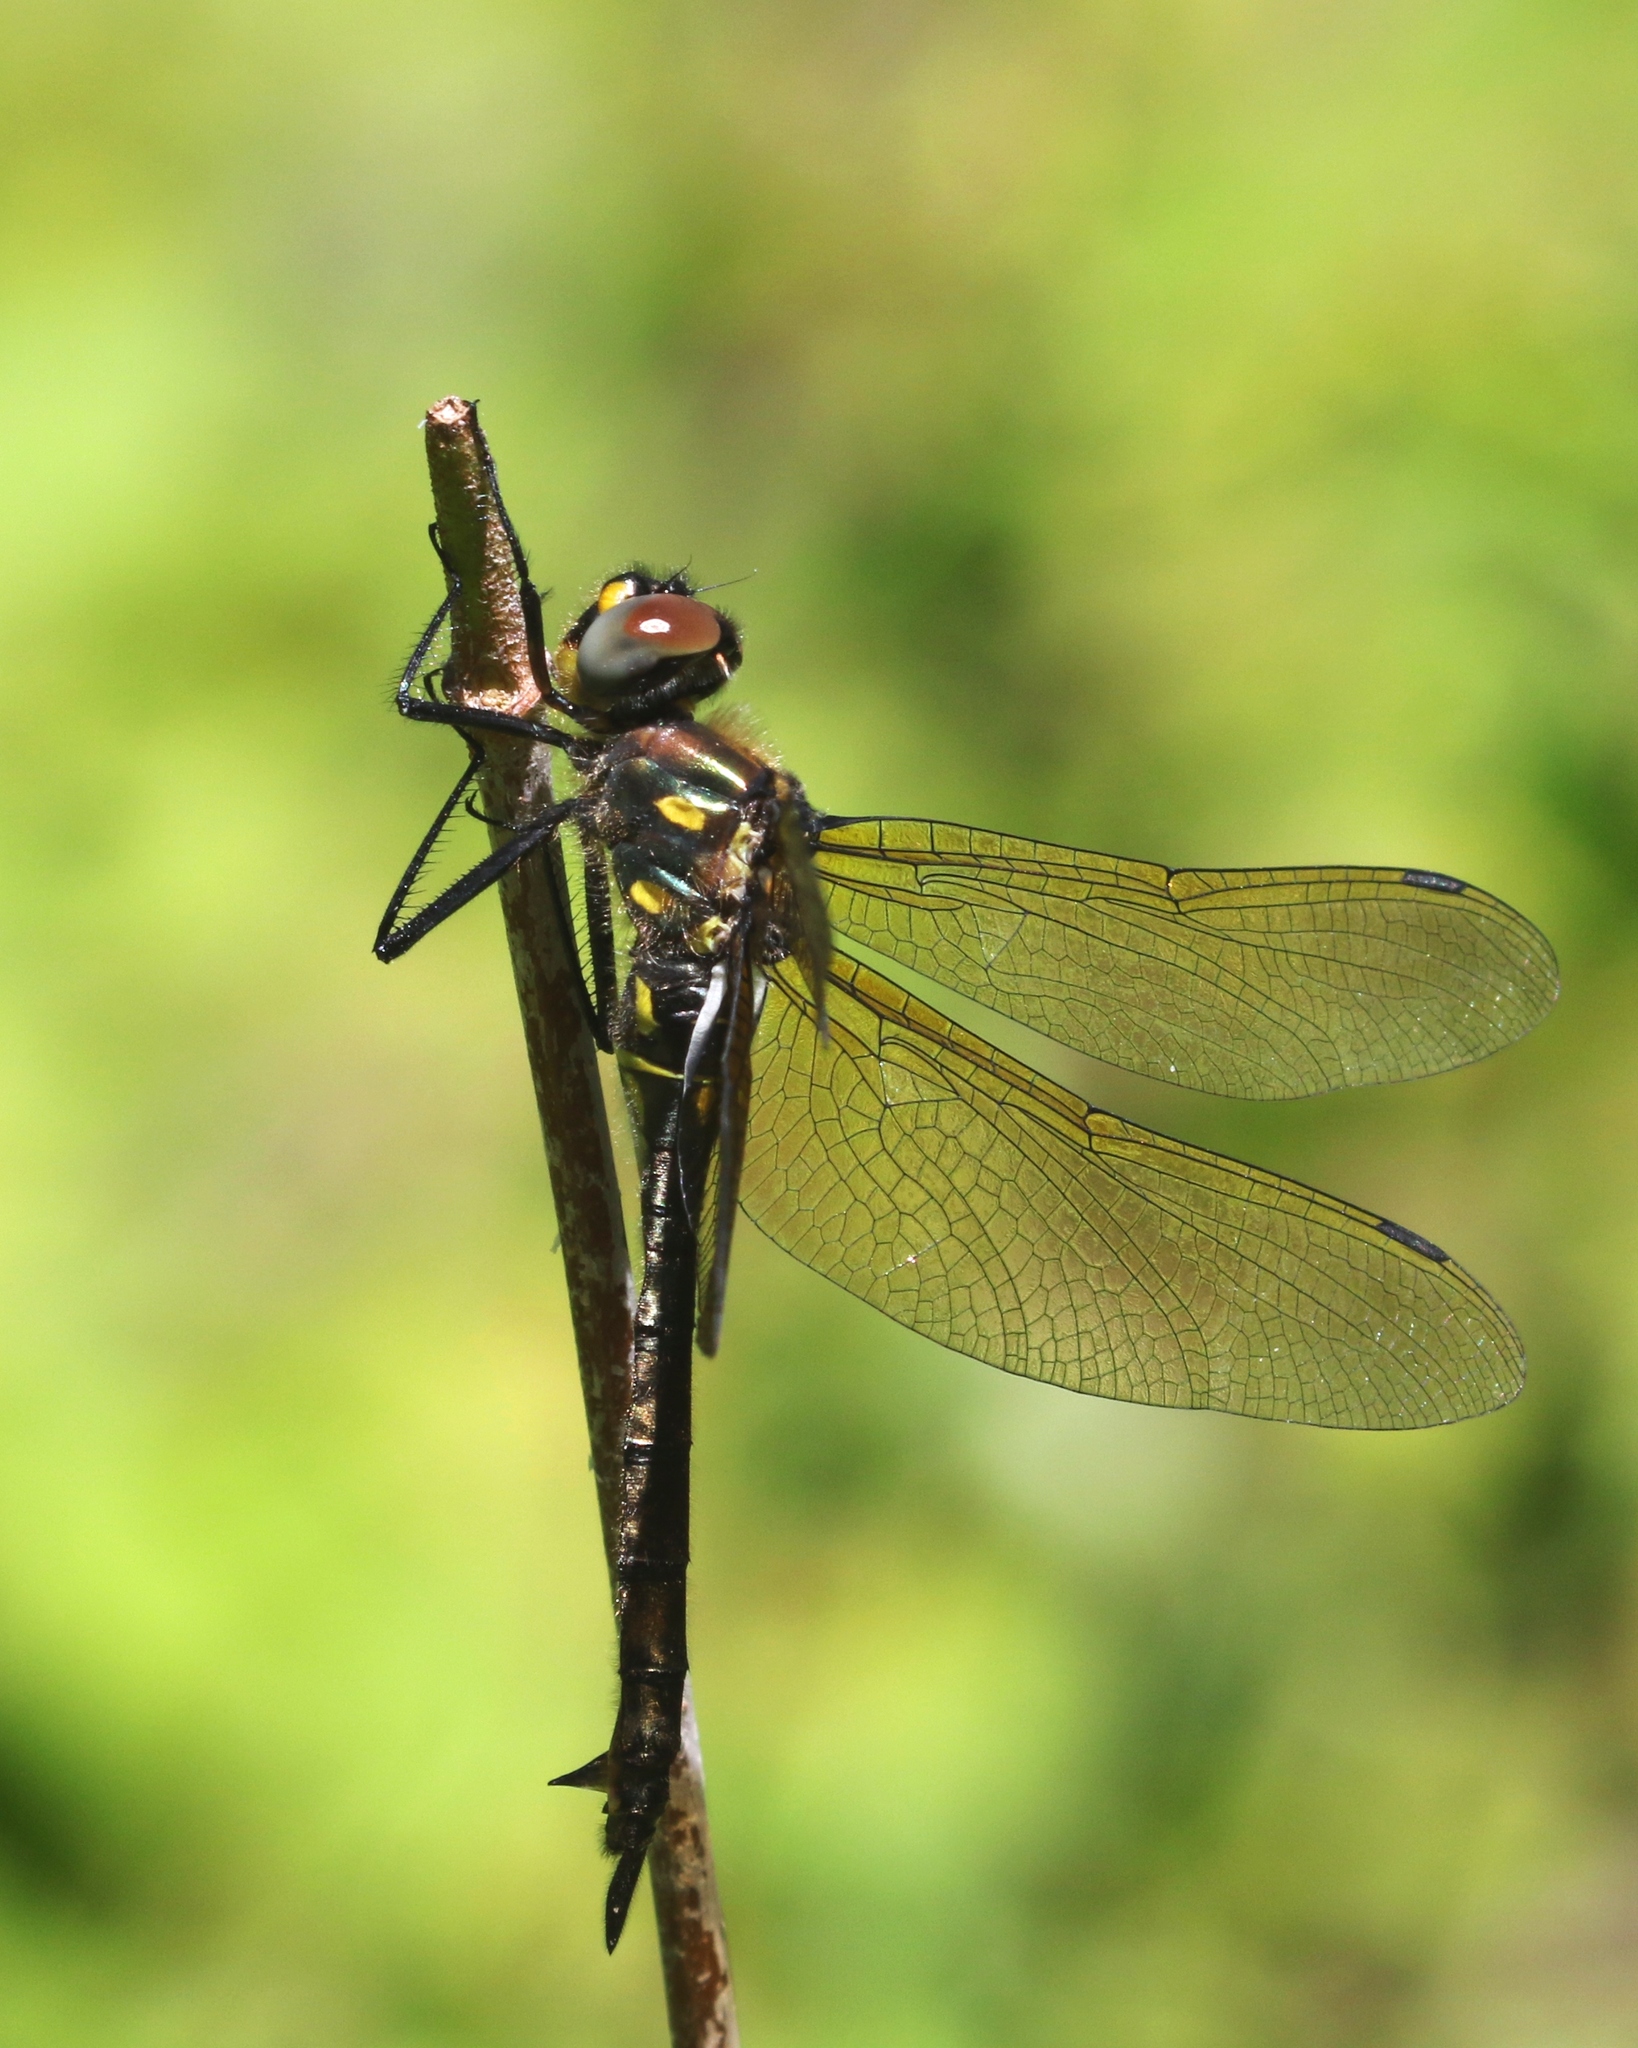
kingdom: Animalia
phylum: Arthropoda
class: Insecta
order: Odonata
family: Corduliidae
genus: Somatochlora
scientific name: Somatochlora minor
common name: Ocellated emerald
